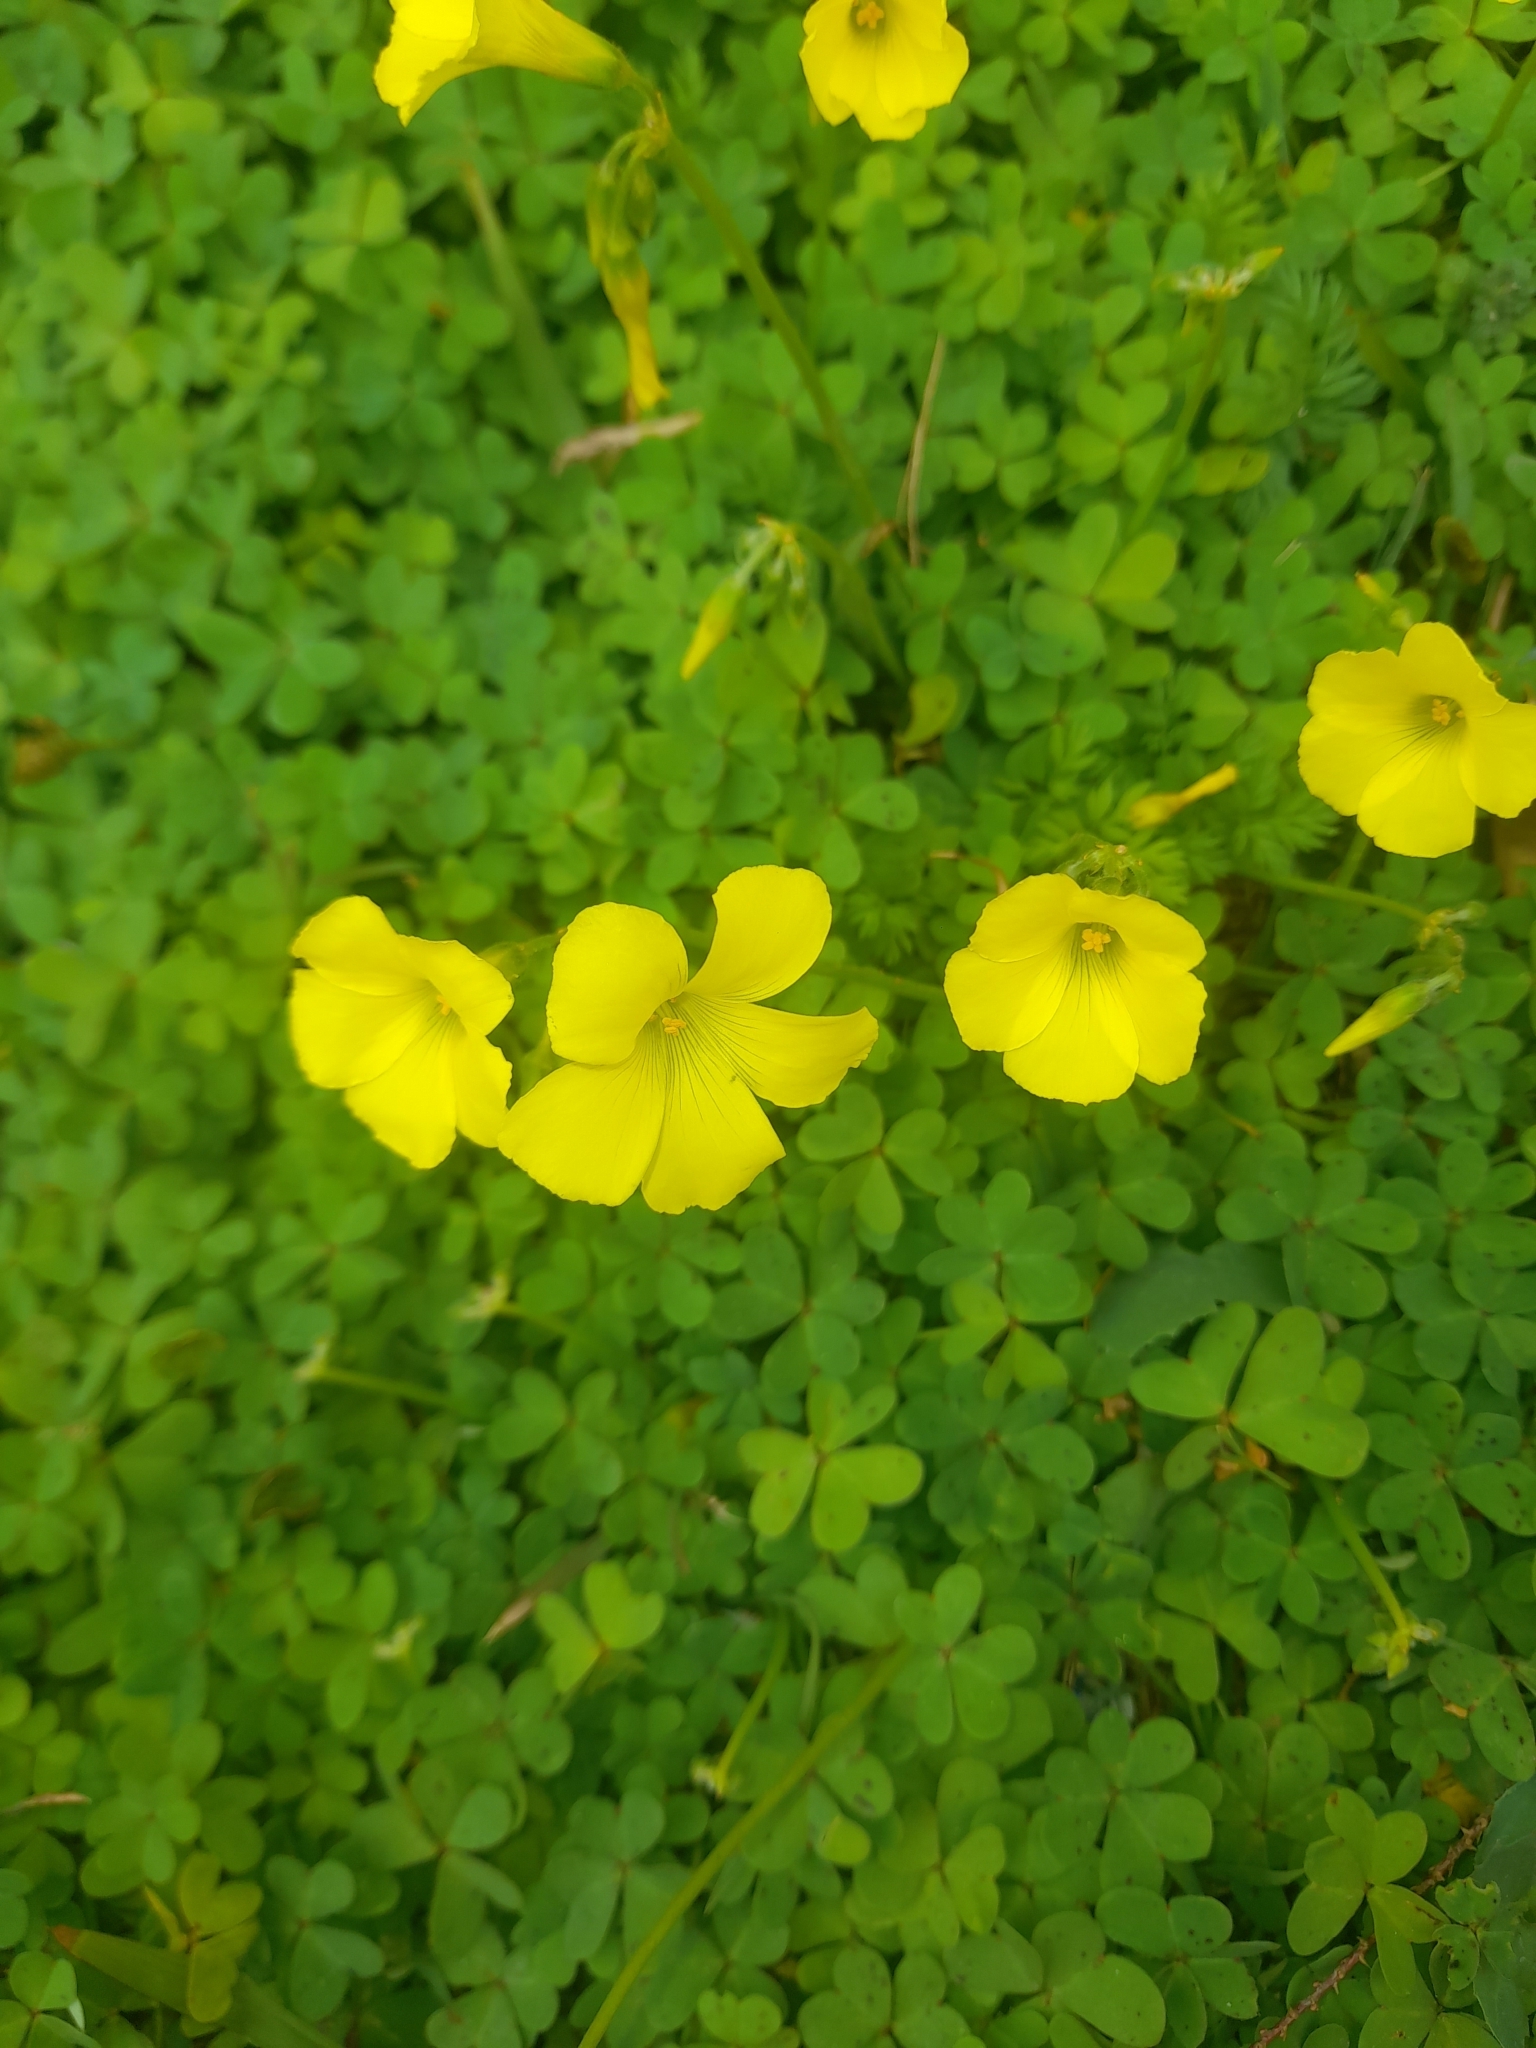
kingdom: Plantae
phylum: Tracheophyta
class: Magnoliopsida
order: Oxalidales
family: Oxalidaceae
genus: Oxalis
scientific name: Oxalis pes-caprae
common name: Bermuda-buttercup
